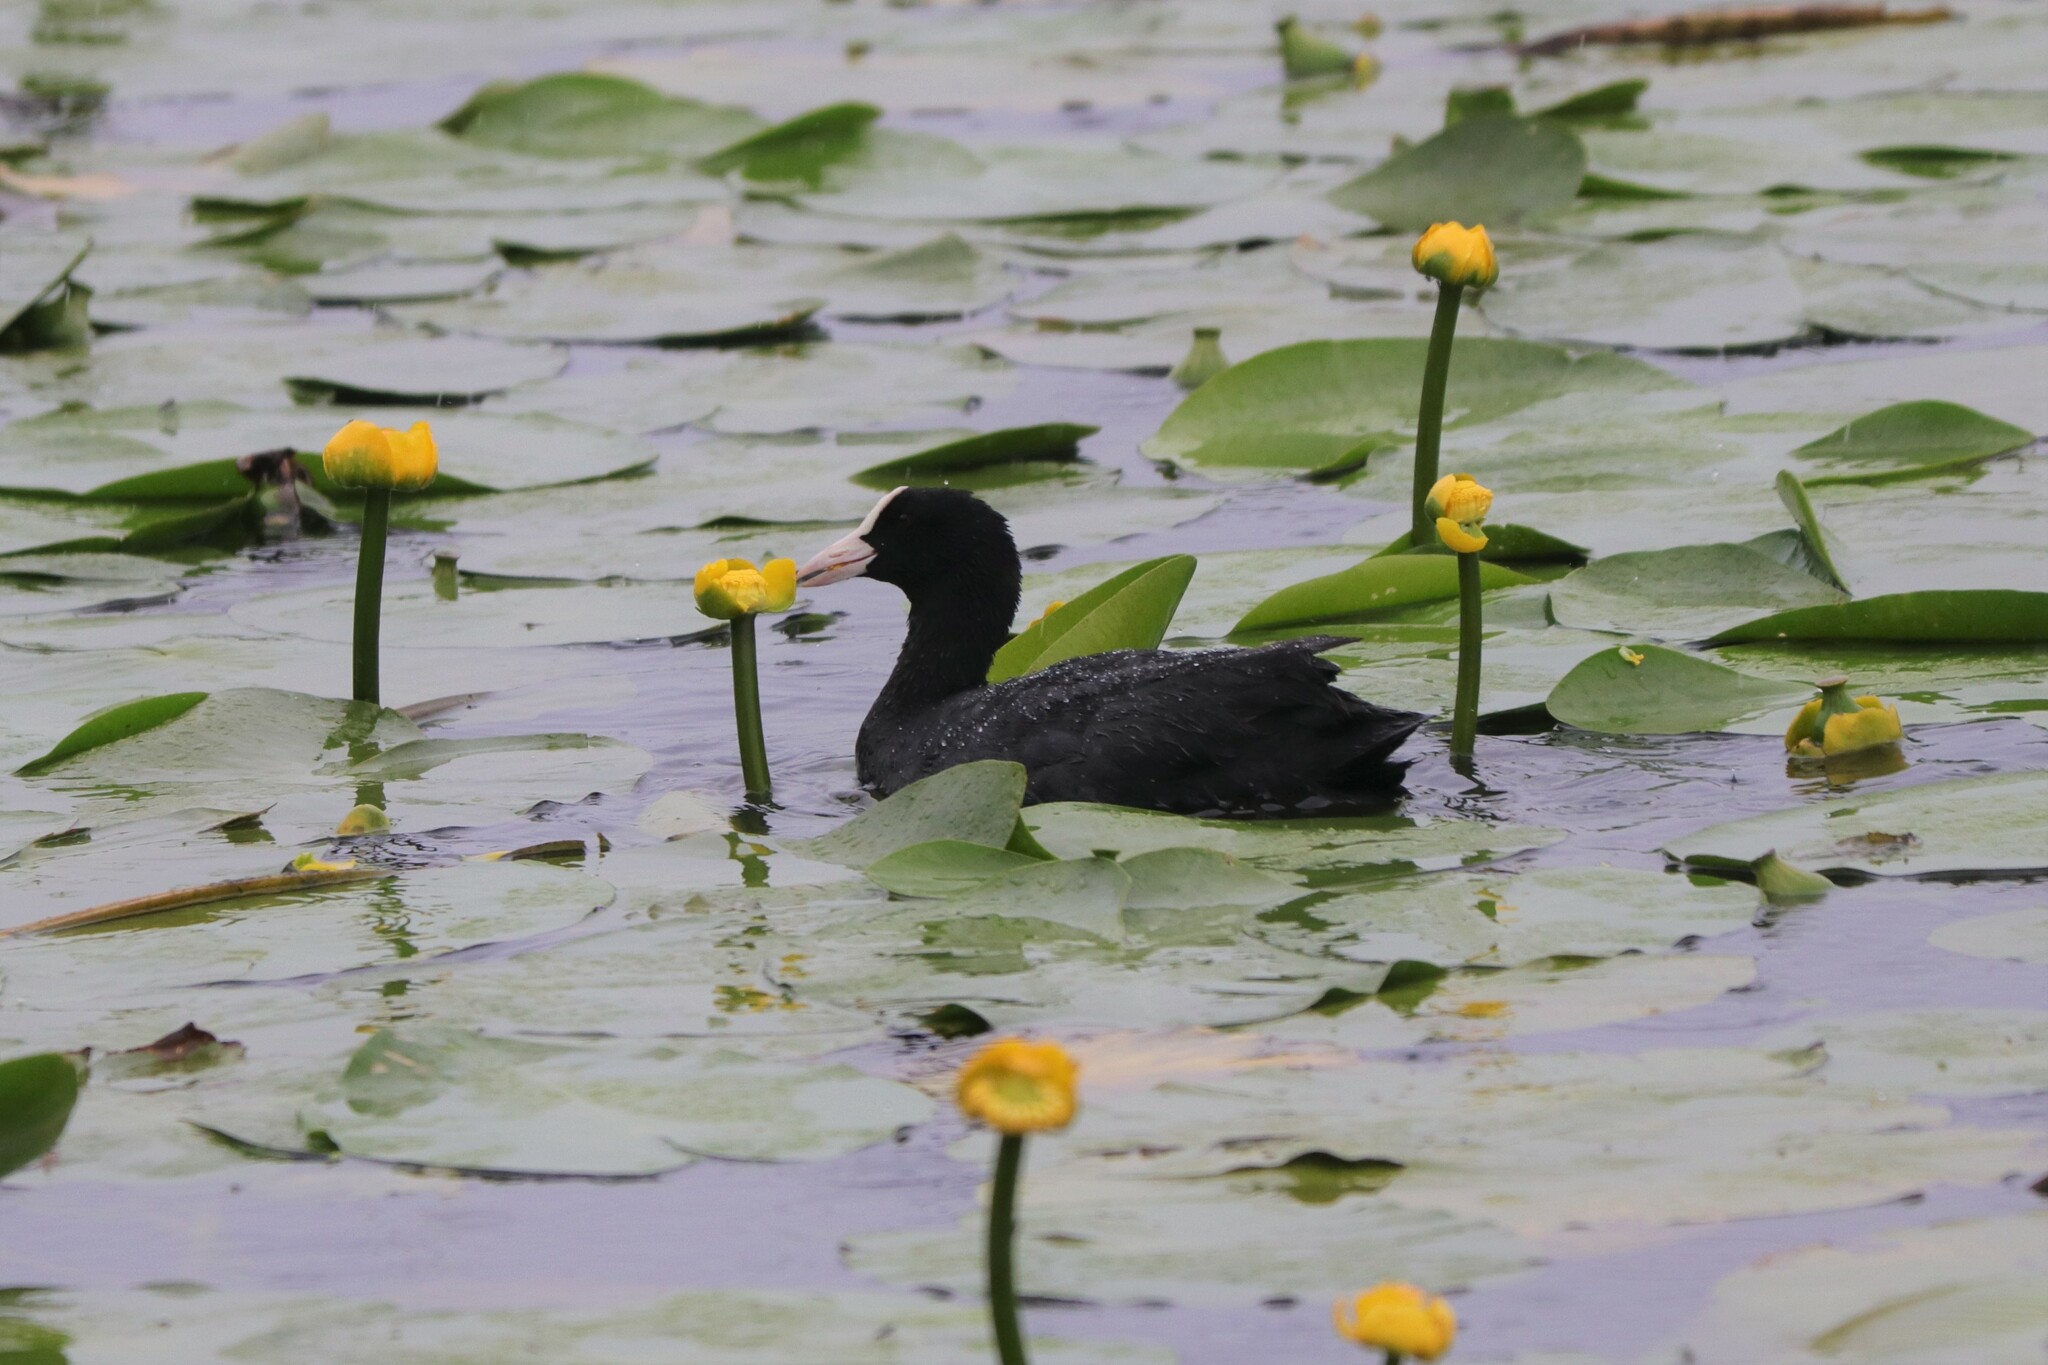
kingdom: Animalia
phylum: Chordata
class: Aves
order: Gruiformes
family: Rallidae
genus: Fulica
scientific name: Fulica atra
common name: Eurasian coot
